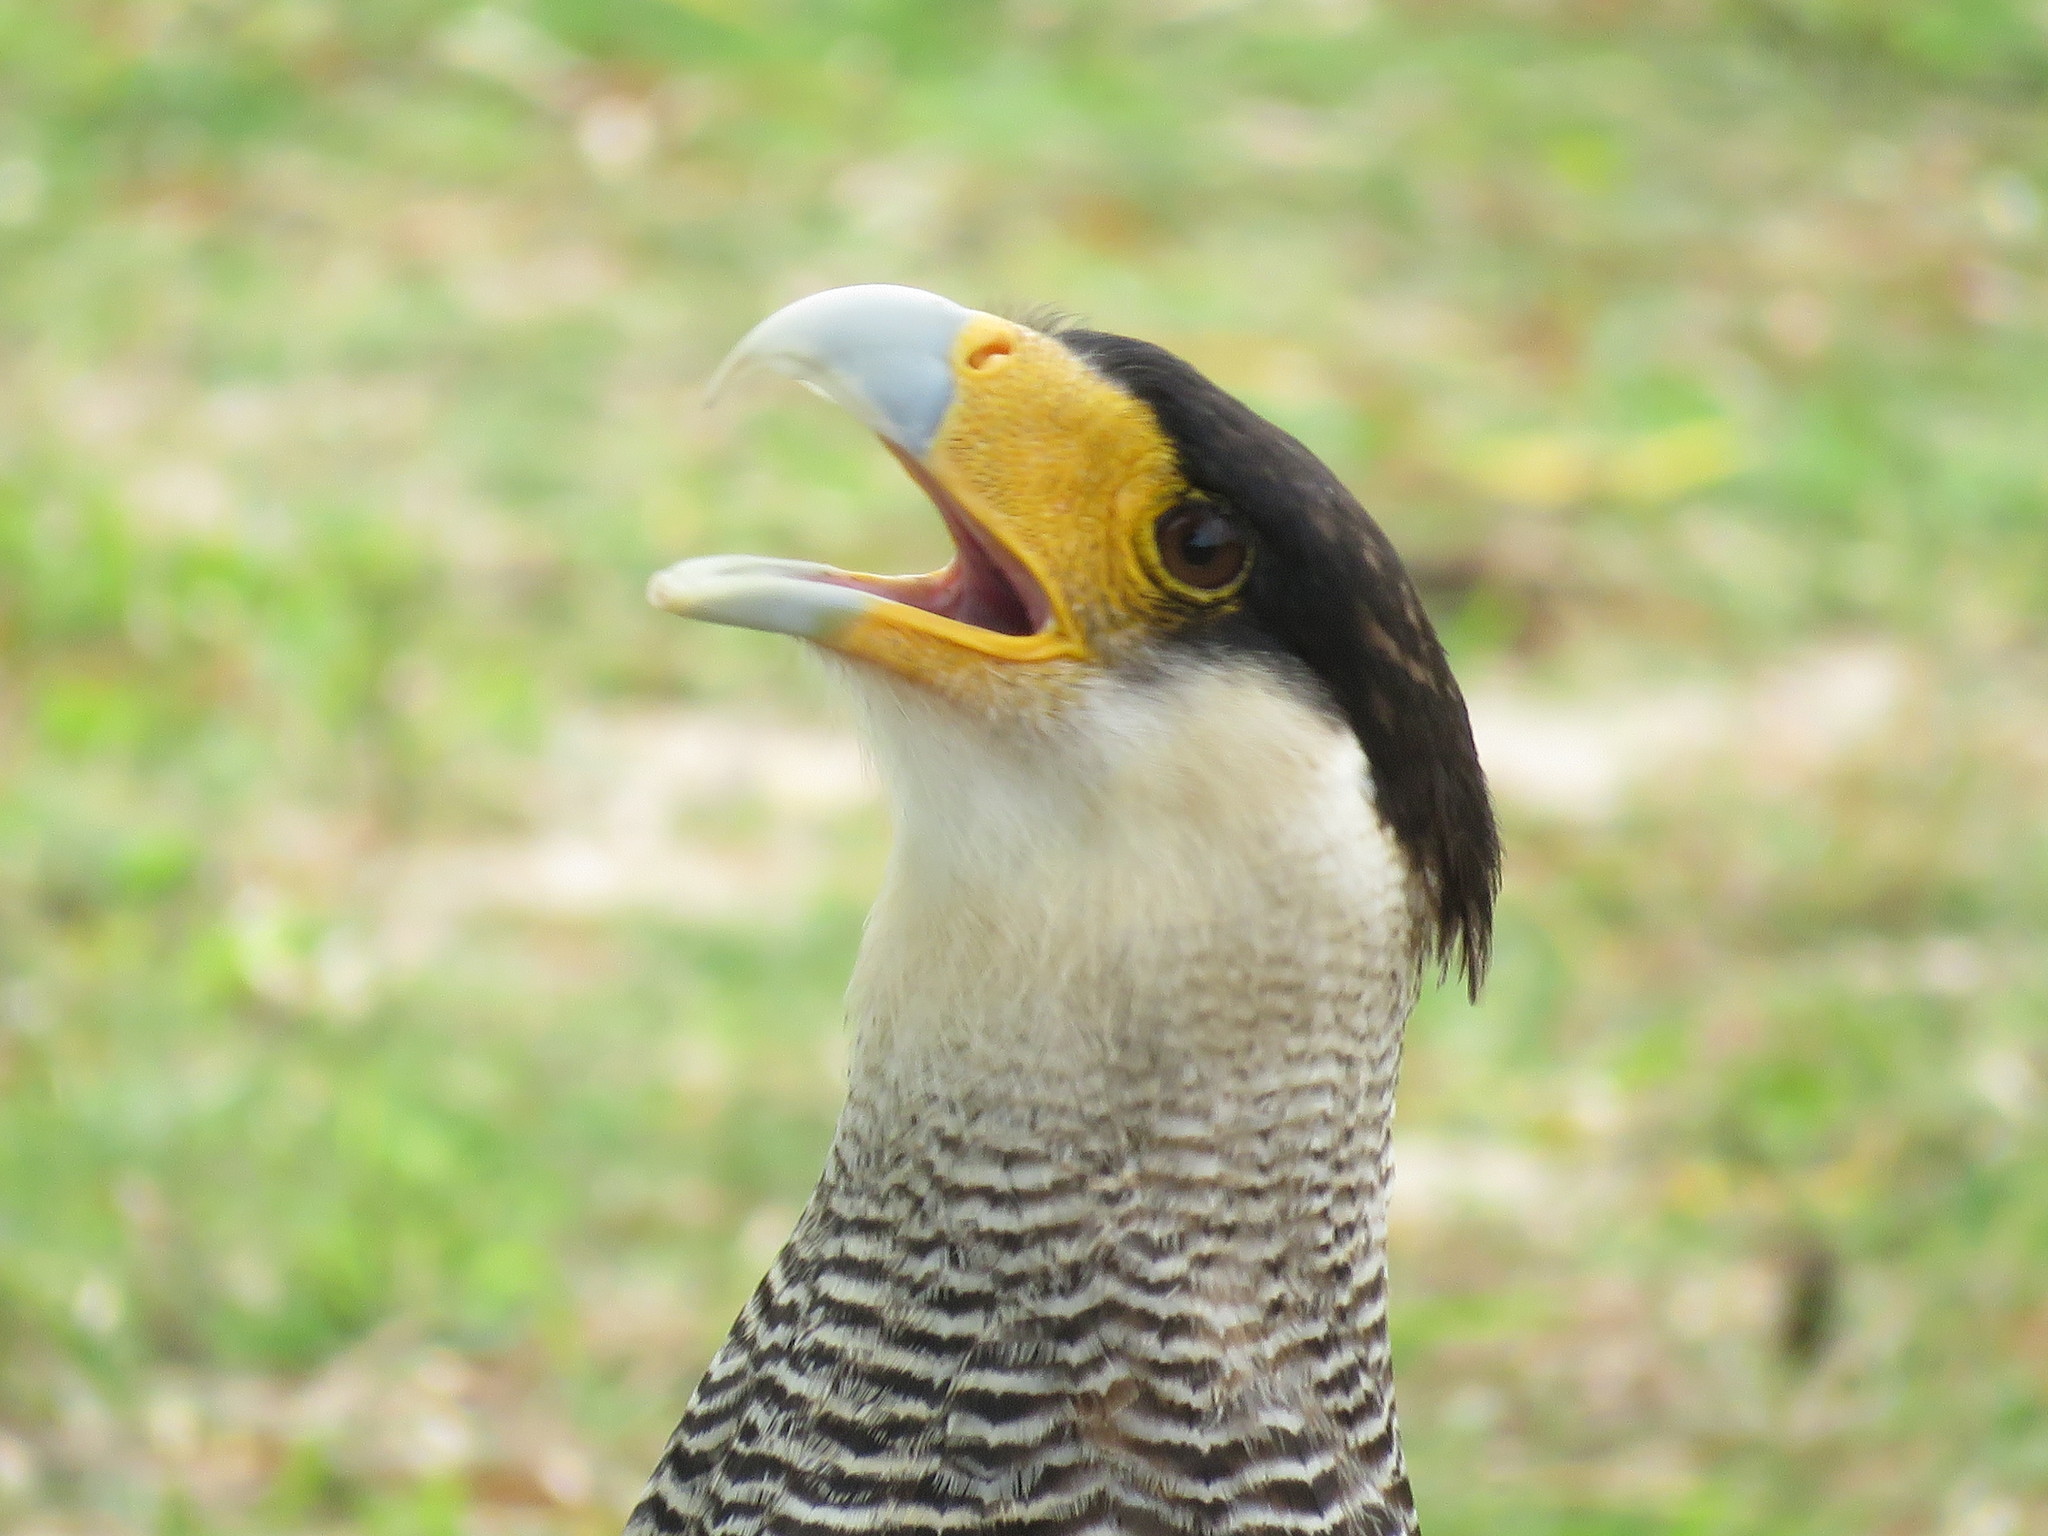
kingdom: Animalia
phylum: Chordata
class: Aves
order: Falconiformes
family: Falconidae
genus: Caracara
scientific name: Caracara plancus
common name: Southern caracara
